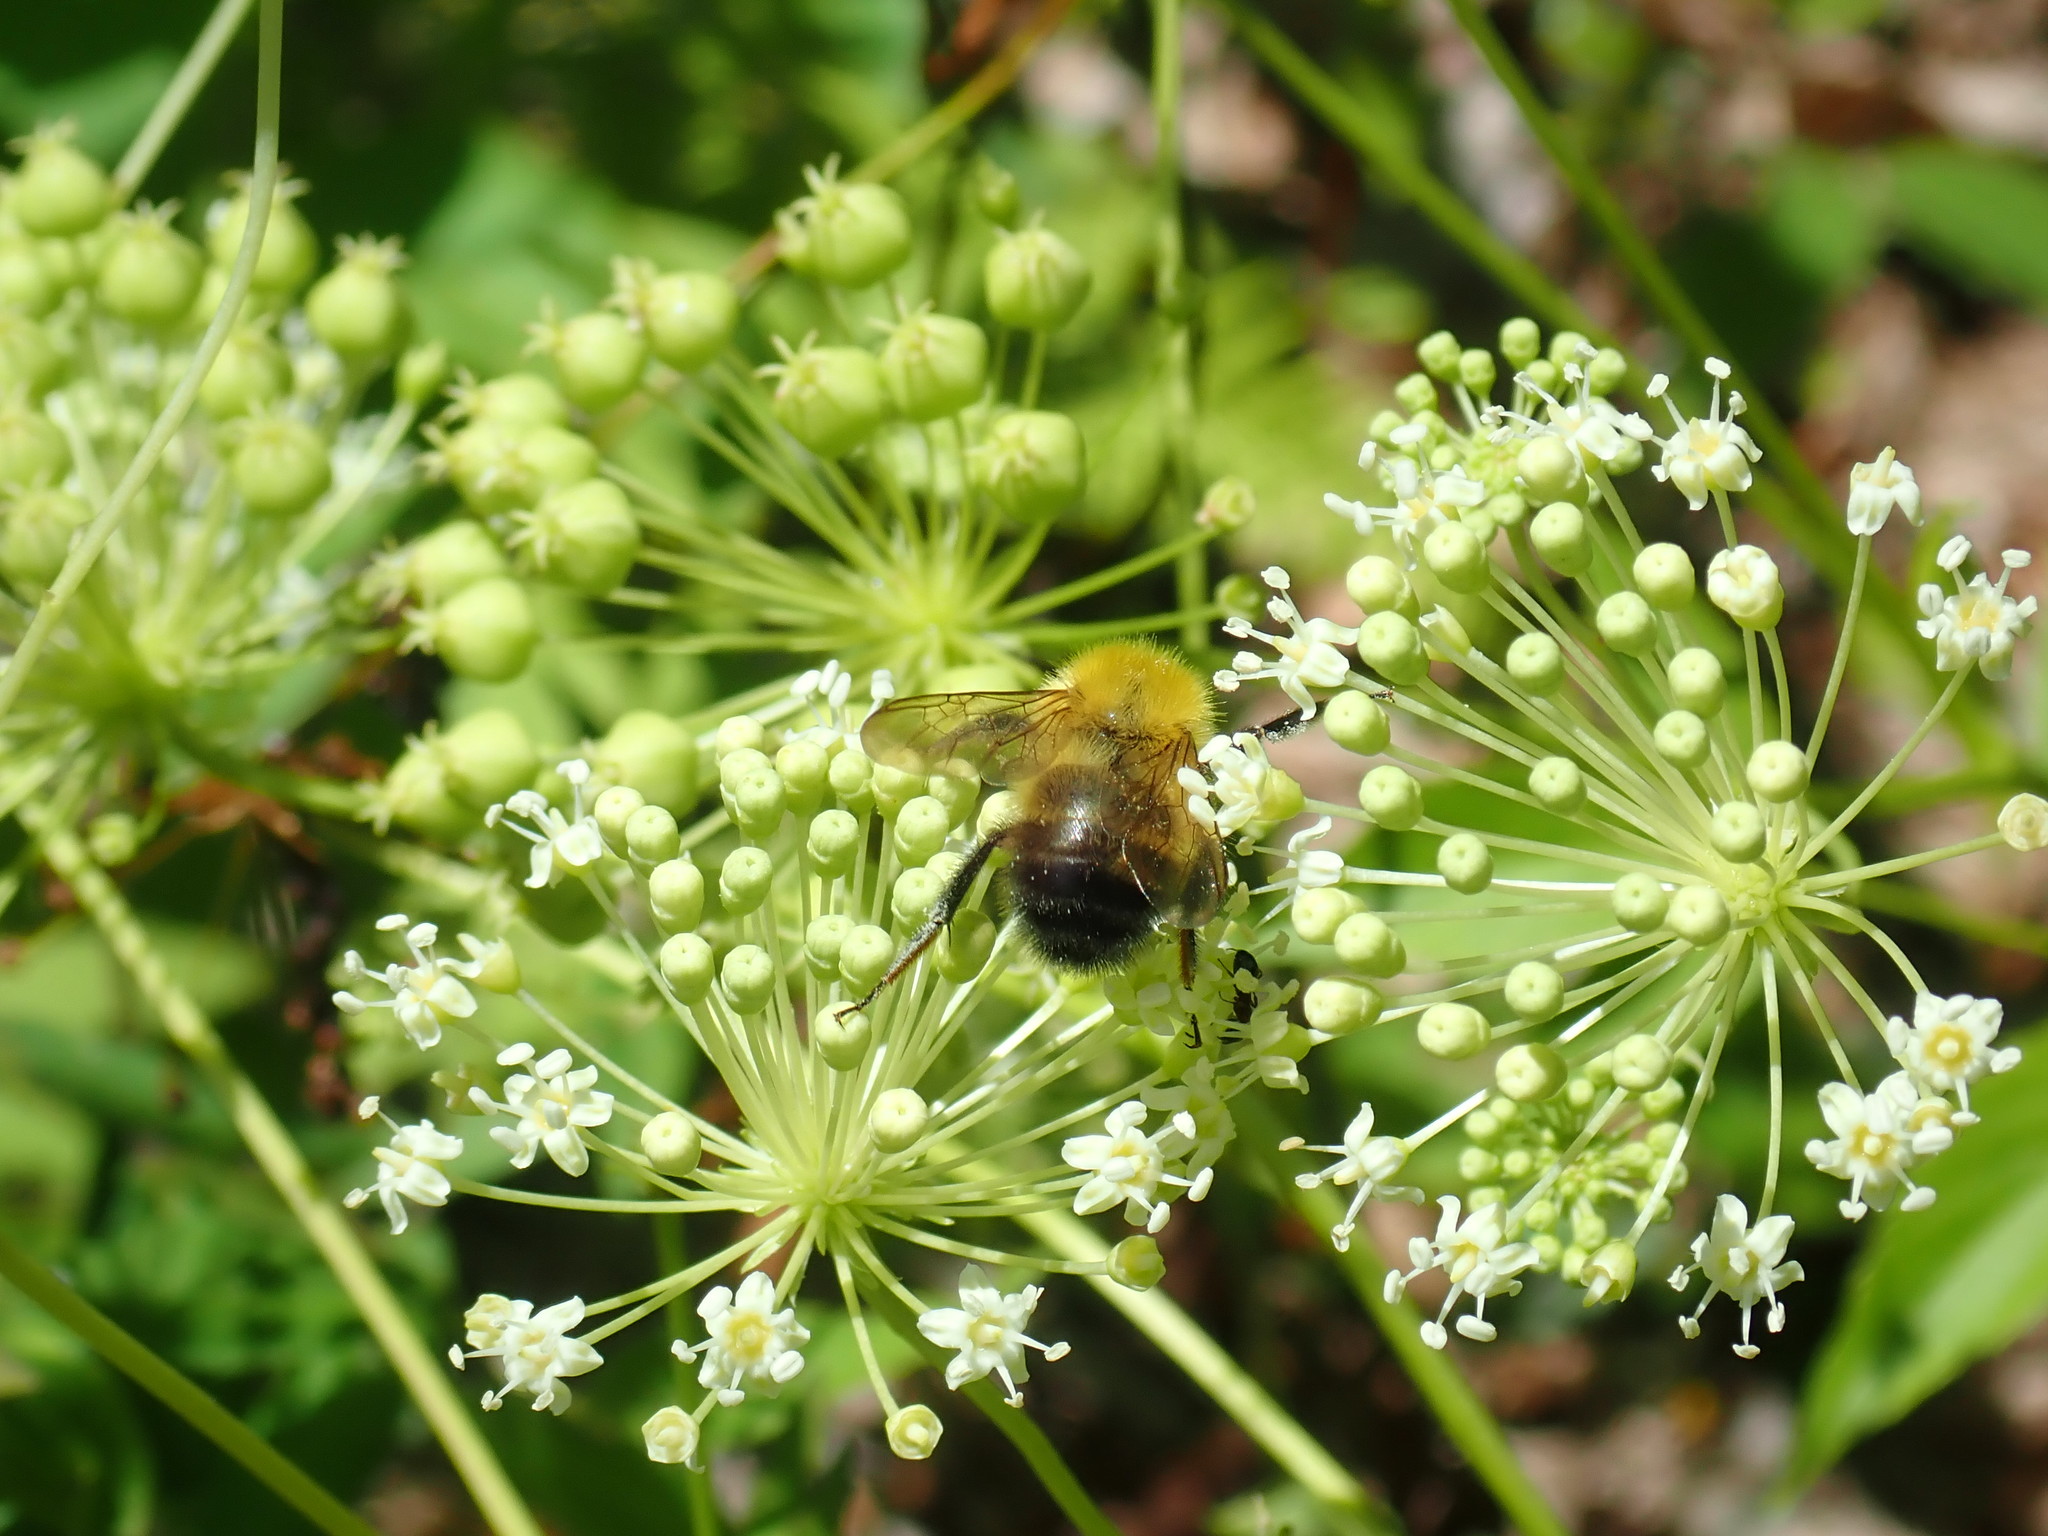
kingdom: Animalia
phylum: Arthropoda
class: Insecta
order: Hymenoptera
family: Apidae
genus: Bombus
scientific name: Bombus perplexus
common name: Confusing bumble bee
